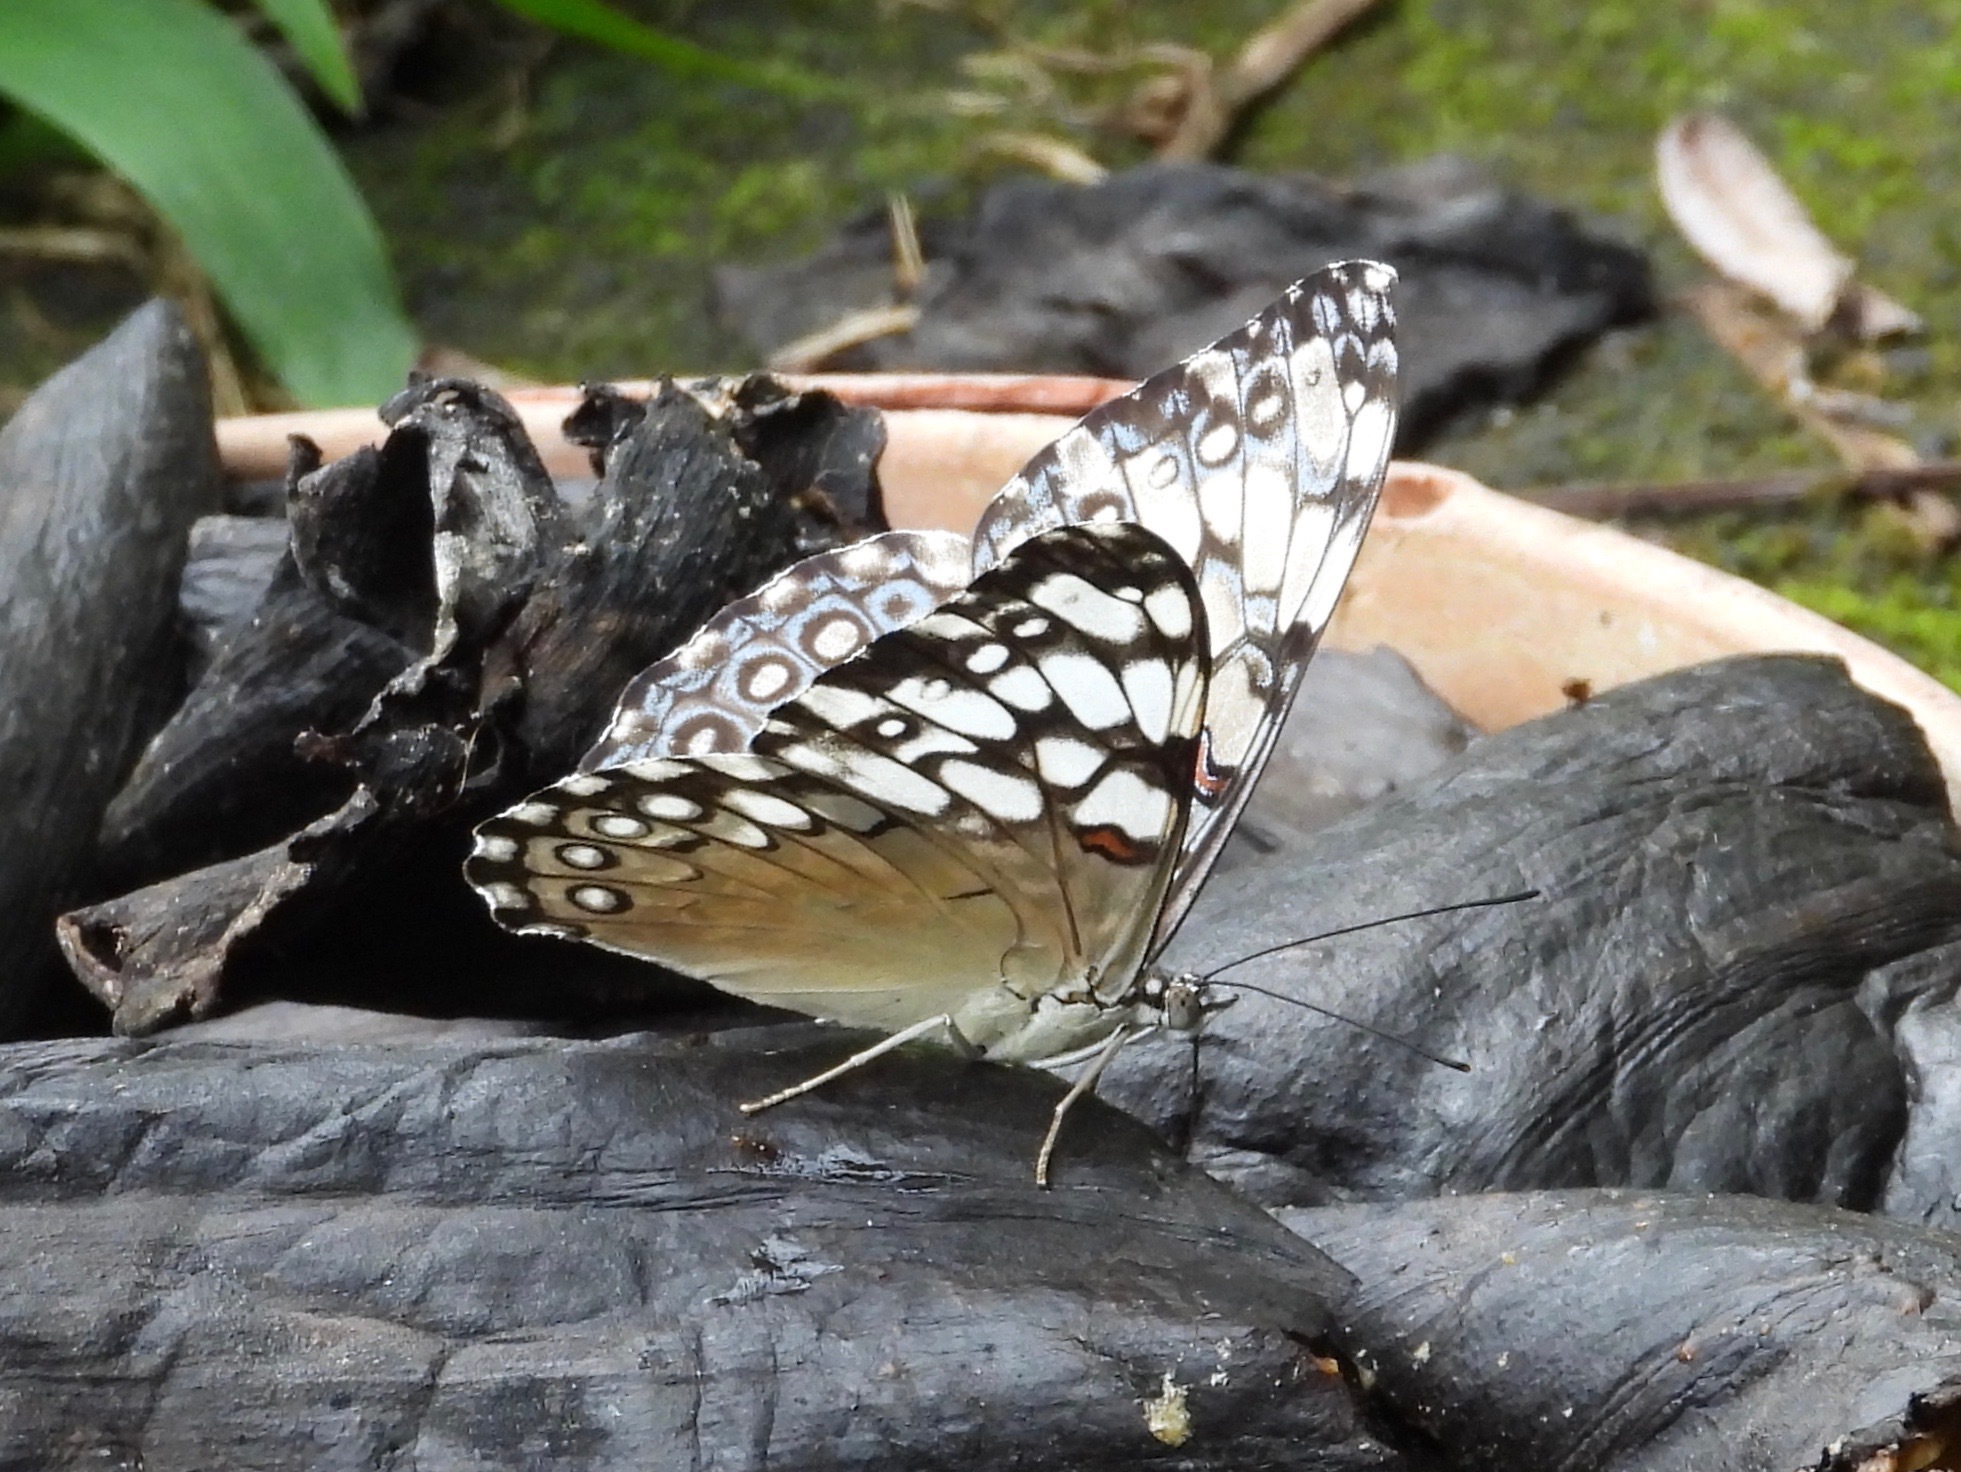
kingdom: Animalia
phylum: Arthropoda
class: Insecta
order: Lepidoptera
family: Nymphalidae
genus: Hamadryas
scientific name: Hamadryas feronia
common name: Variable cracker
